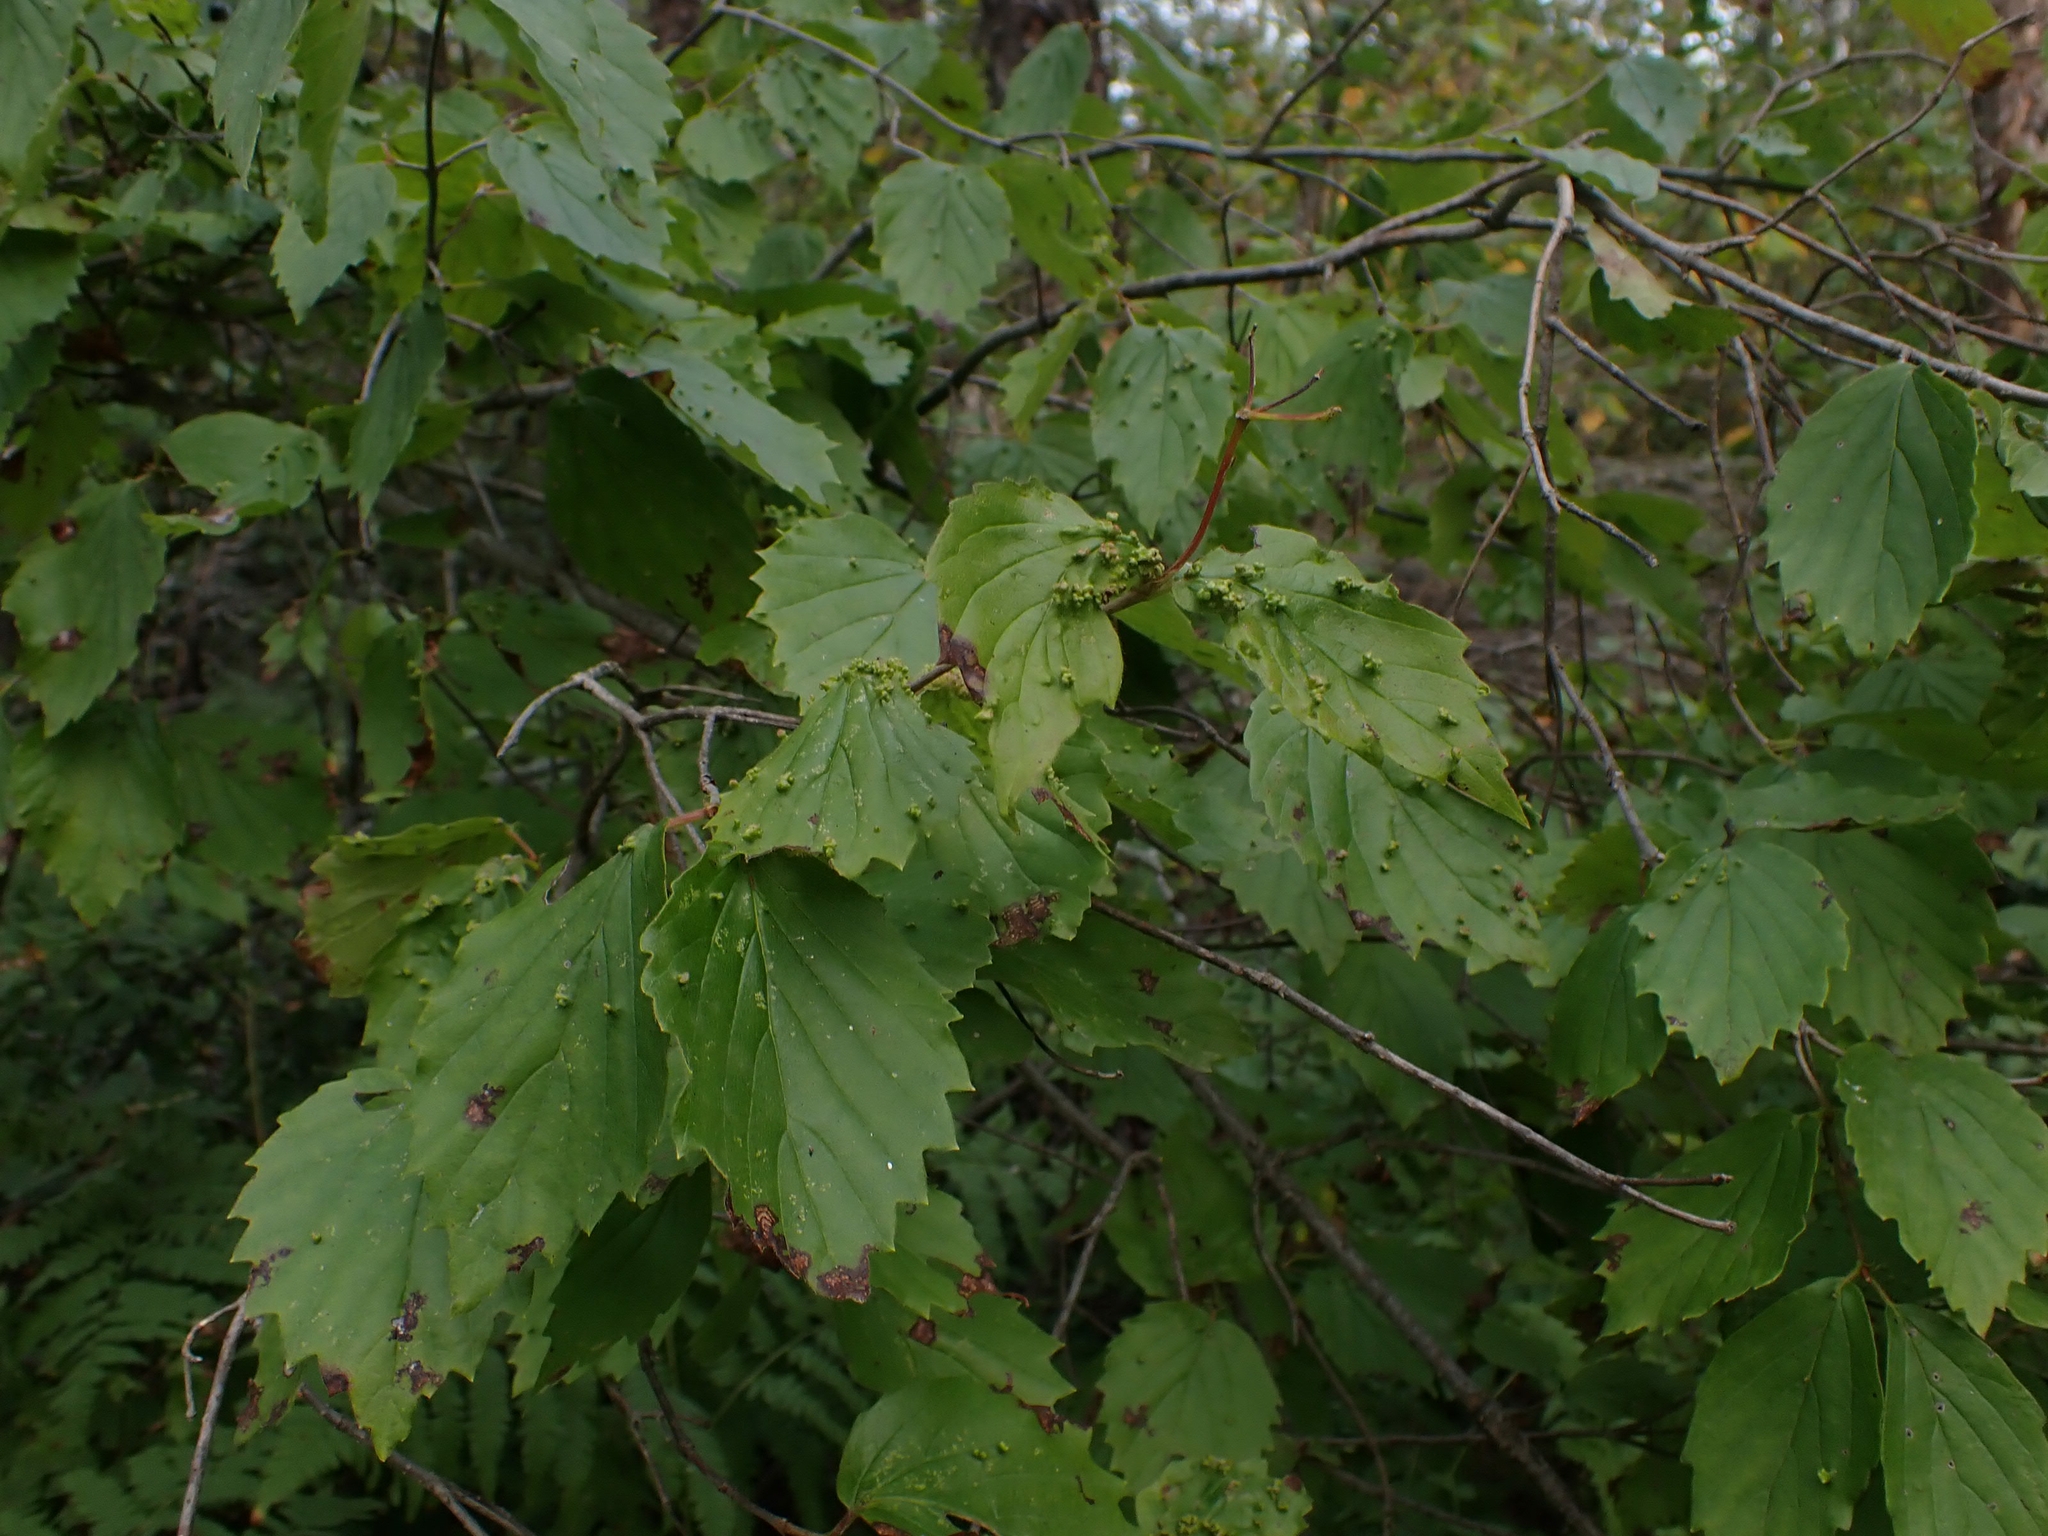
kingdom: Plantae
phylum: Tracheophyta
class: Magnoliopsida
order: Dipsacales
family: Viburnaceae
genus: Viburnum
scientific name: Viburnum rafinesqueanum
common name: Downy arrow-wood
